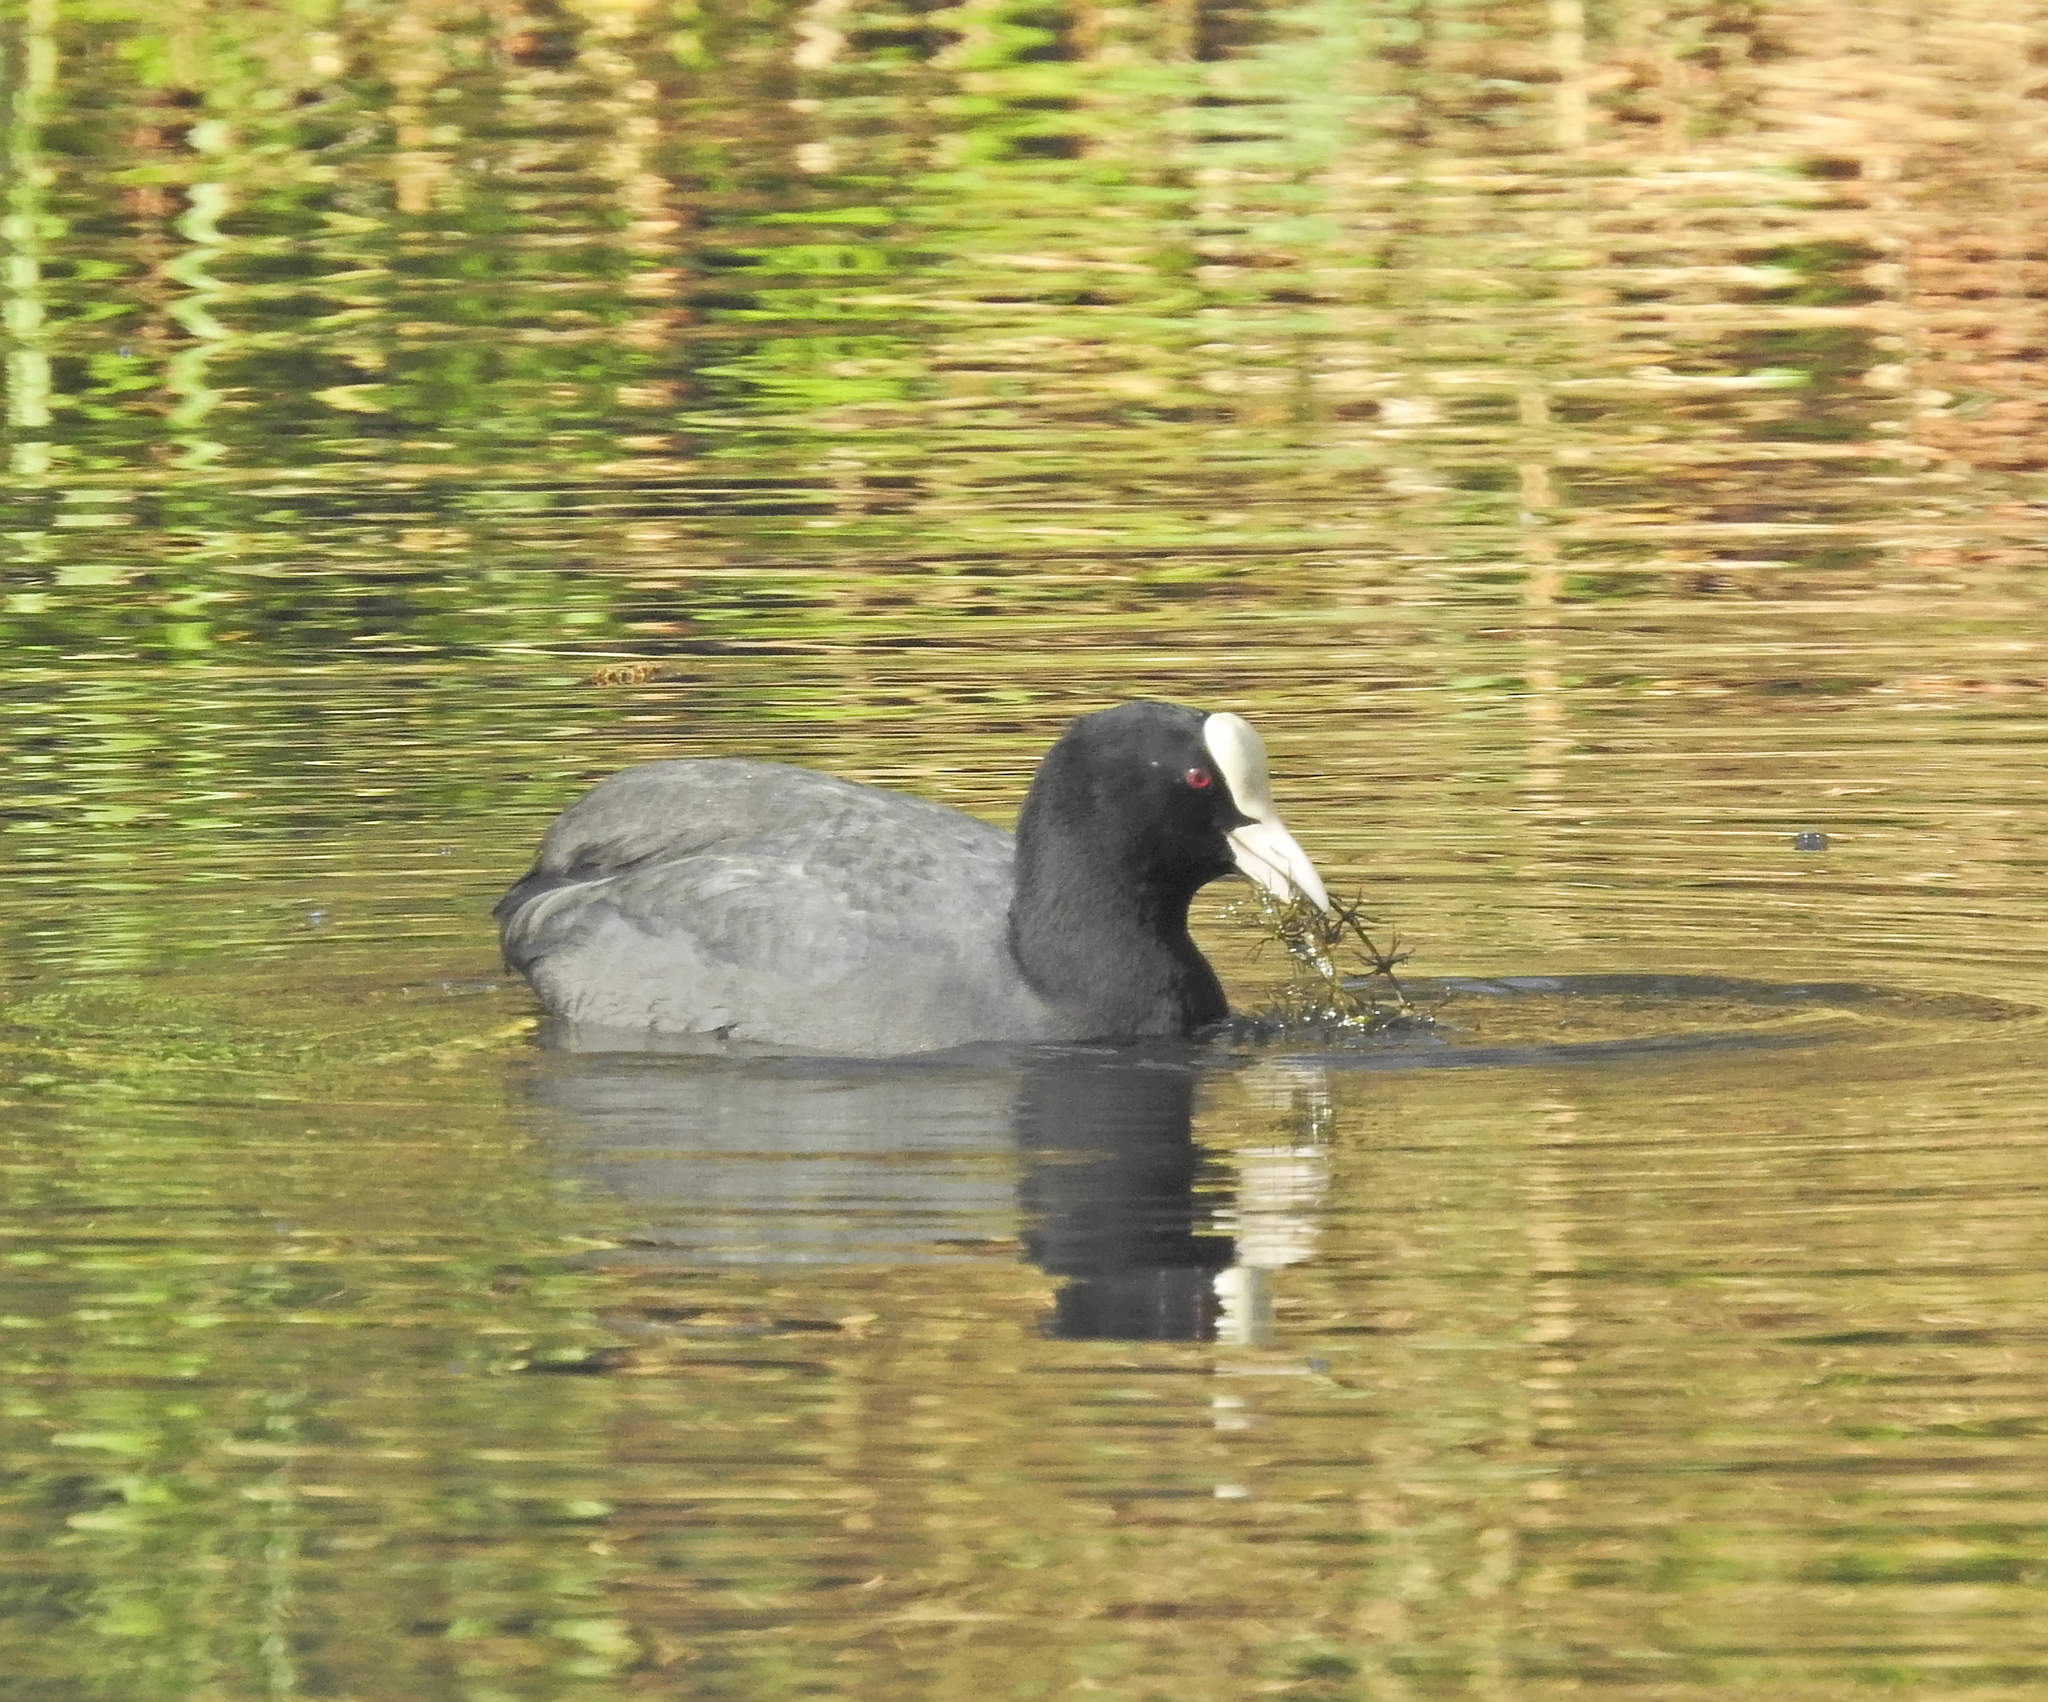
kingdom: Animalia
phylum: Chordata
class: Aves
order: Gruiformes
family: Rallidae
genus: Fulica
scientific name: Fulica atra
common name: Eurasian coot
